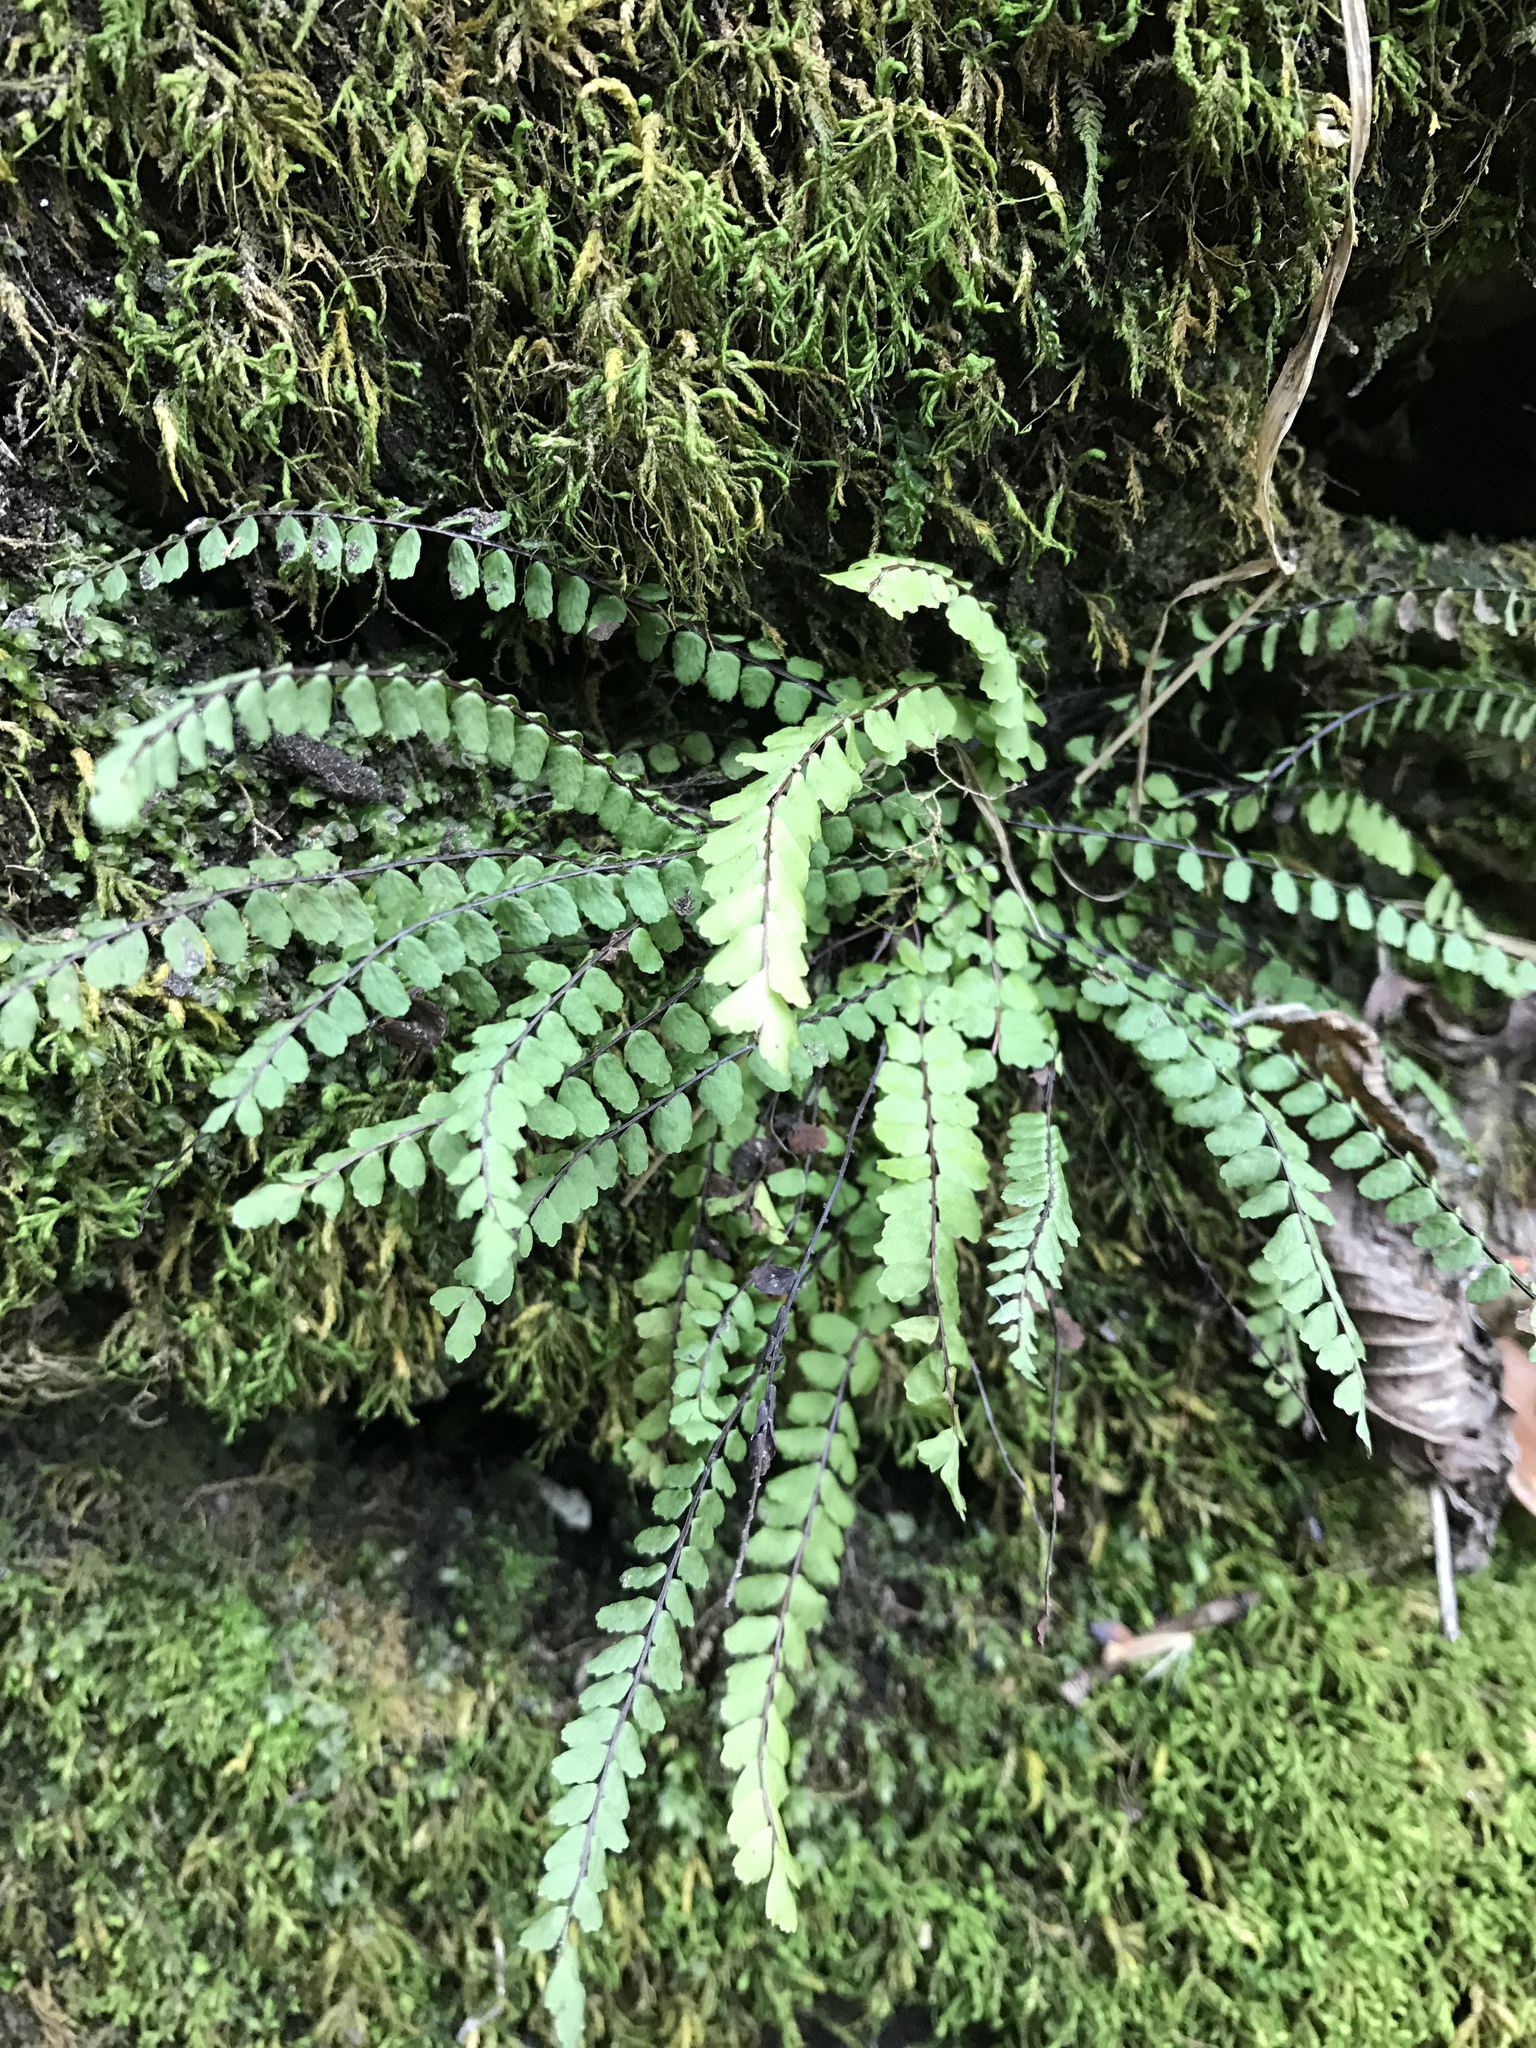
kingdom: Plantae
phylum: Tracheophyta
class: Polypodiopsida
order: Polypodiales
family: Aspleniaceae
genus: Asplenium
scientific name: Asplenium quadrivalens
